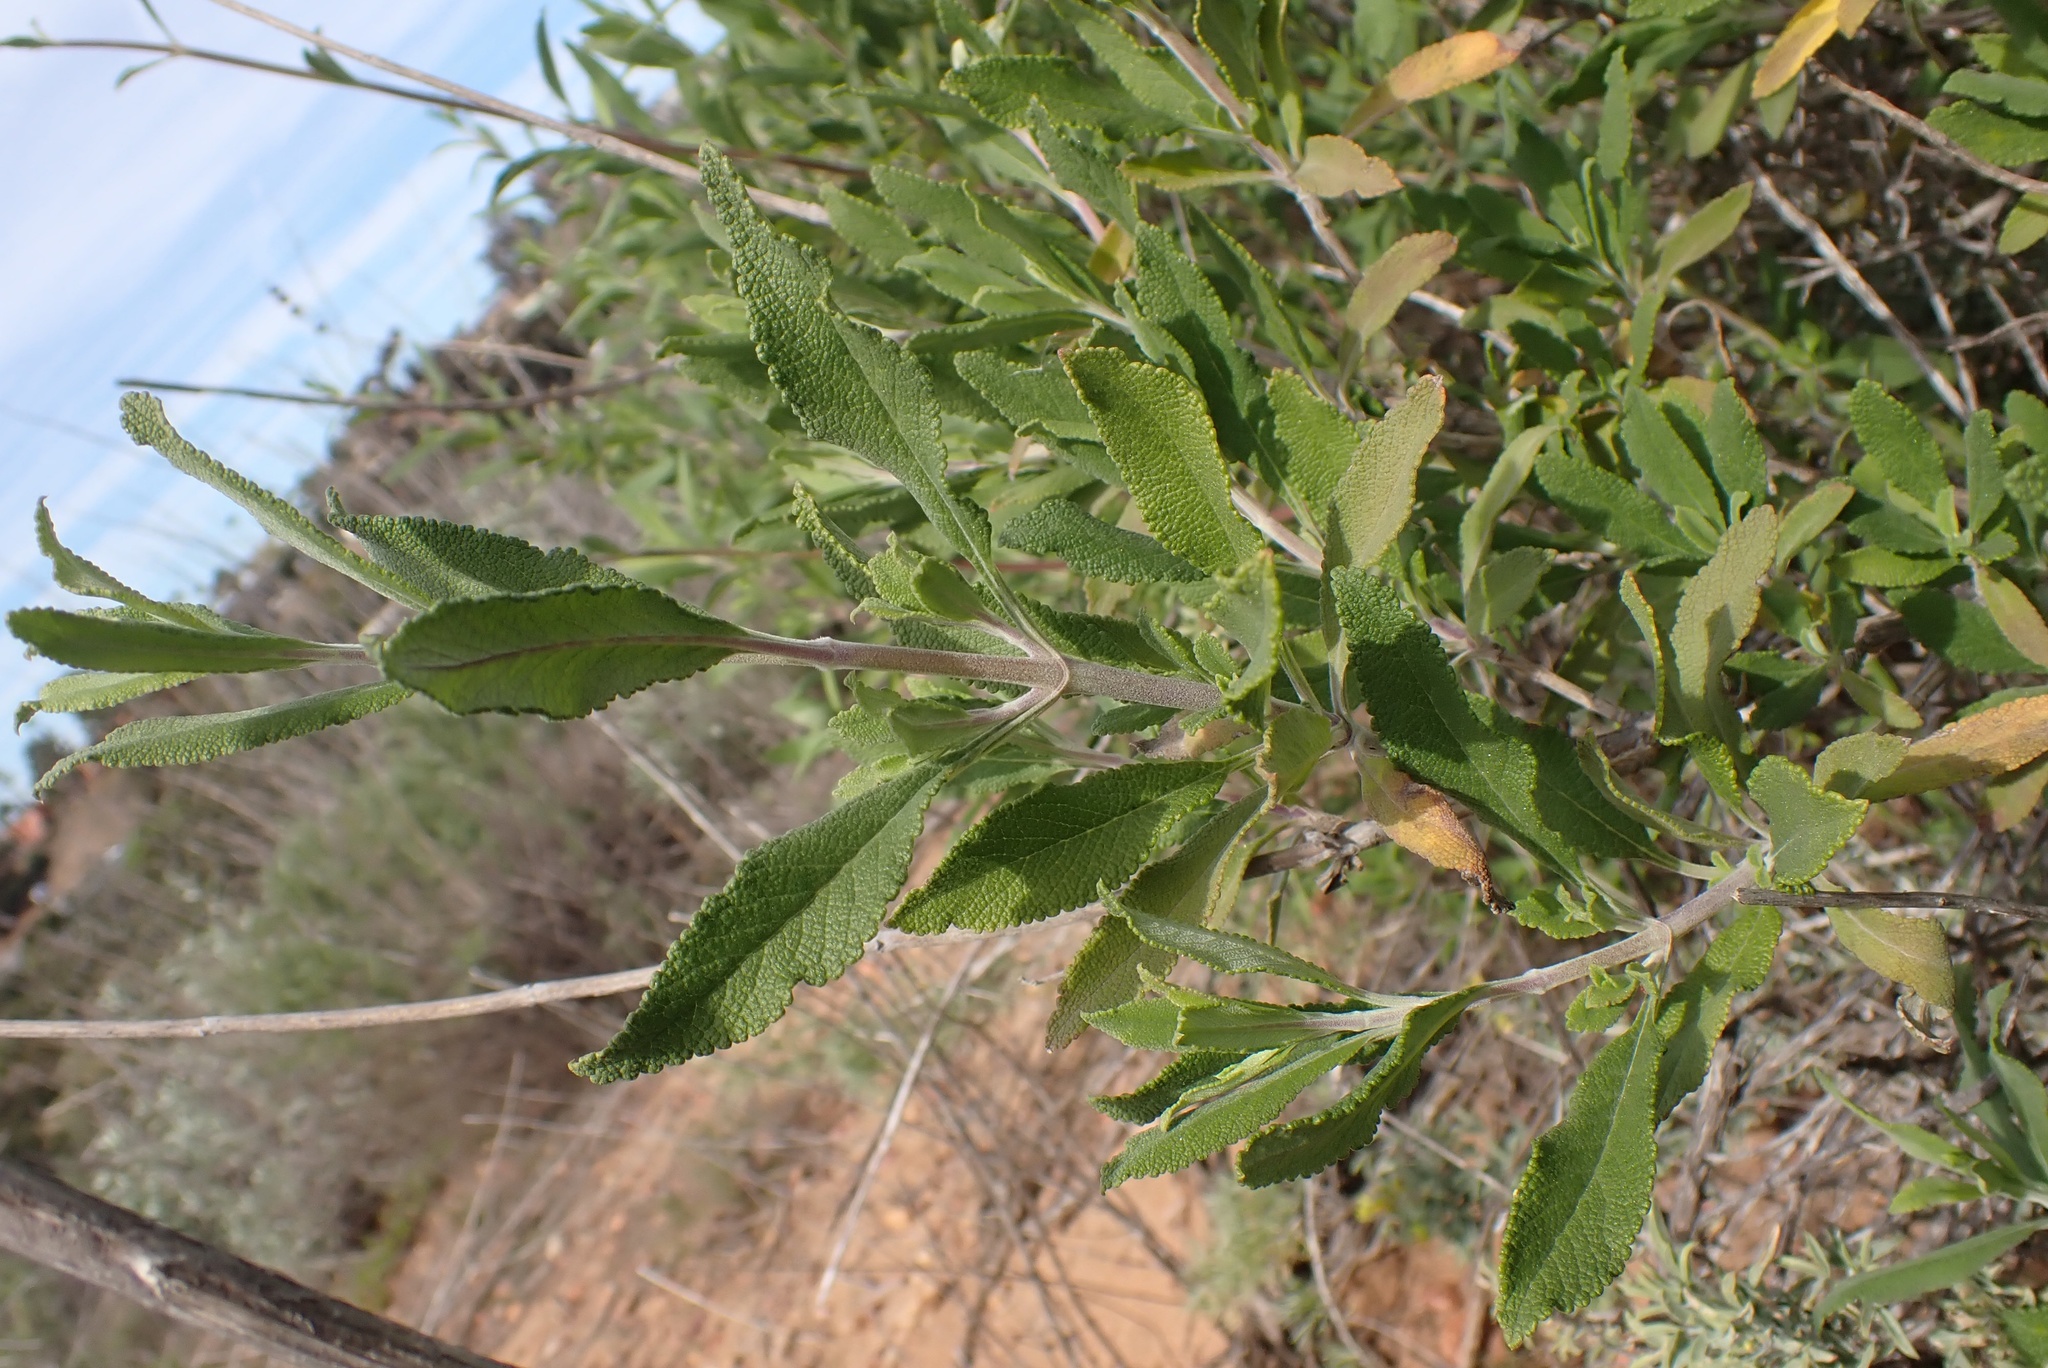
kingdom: Plantae
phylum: Tracheophyta
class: Magnoliopsida
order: Lamiales
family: Lamiaceae
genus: Salvia
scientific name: Salvia mellifera
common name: Black sage
